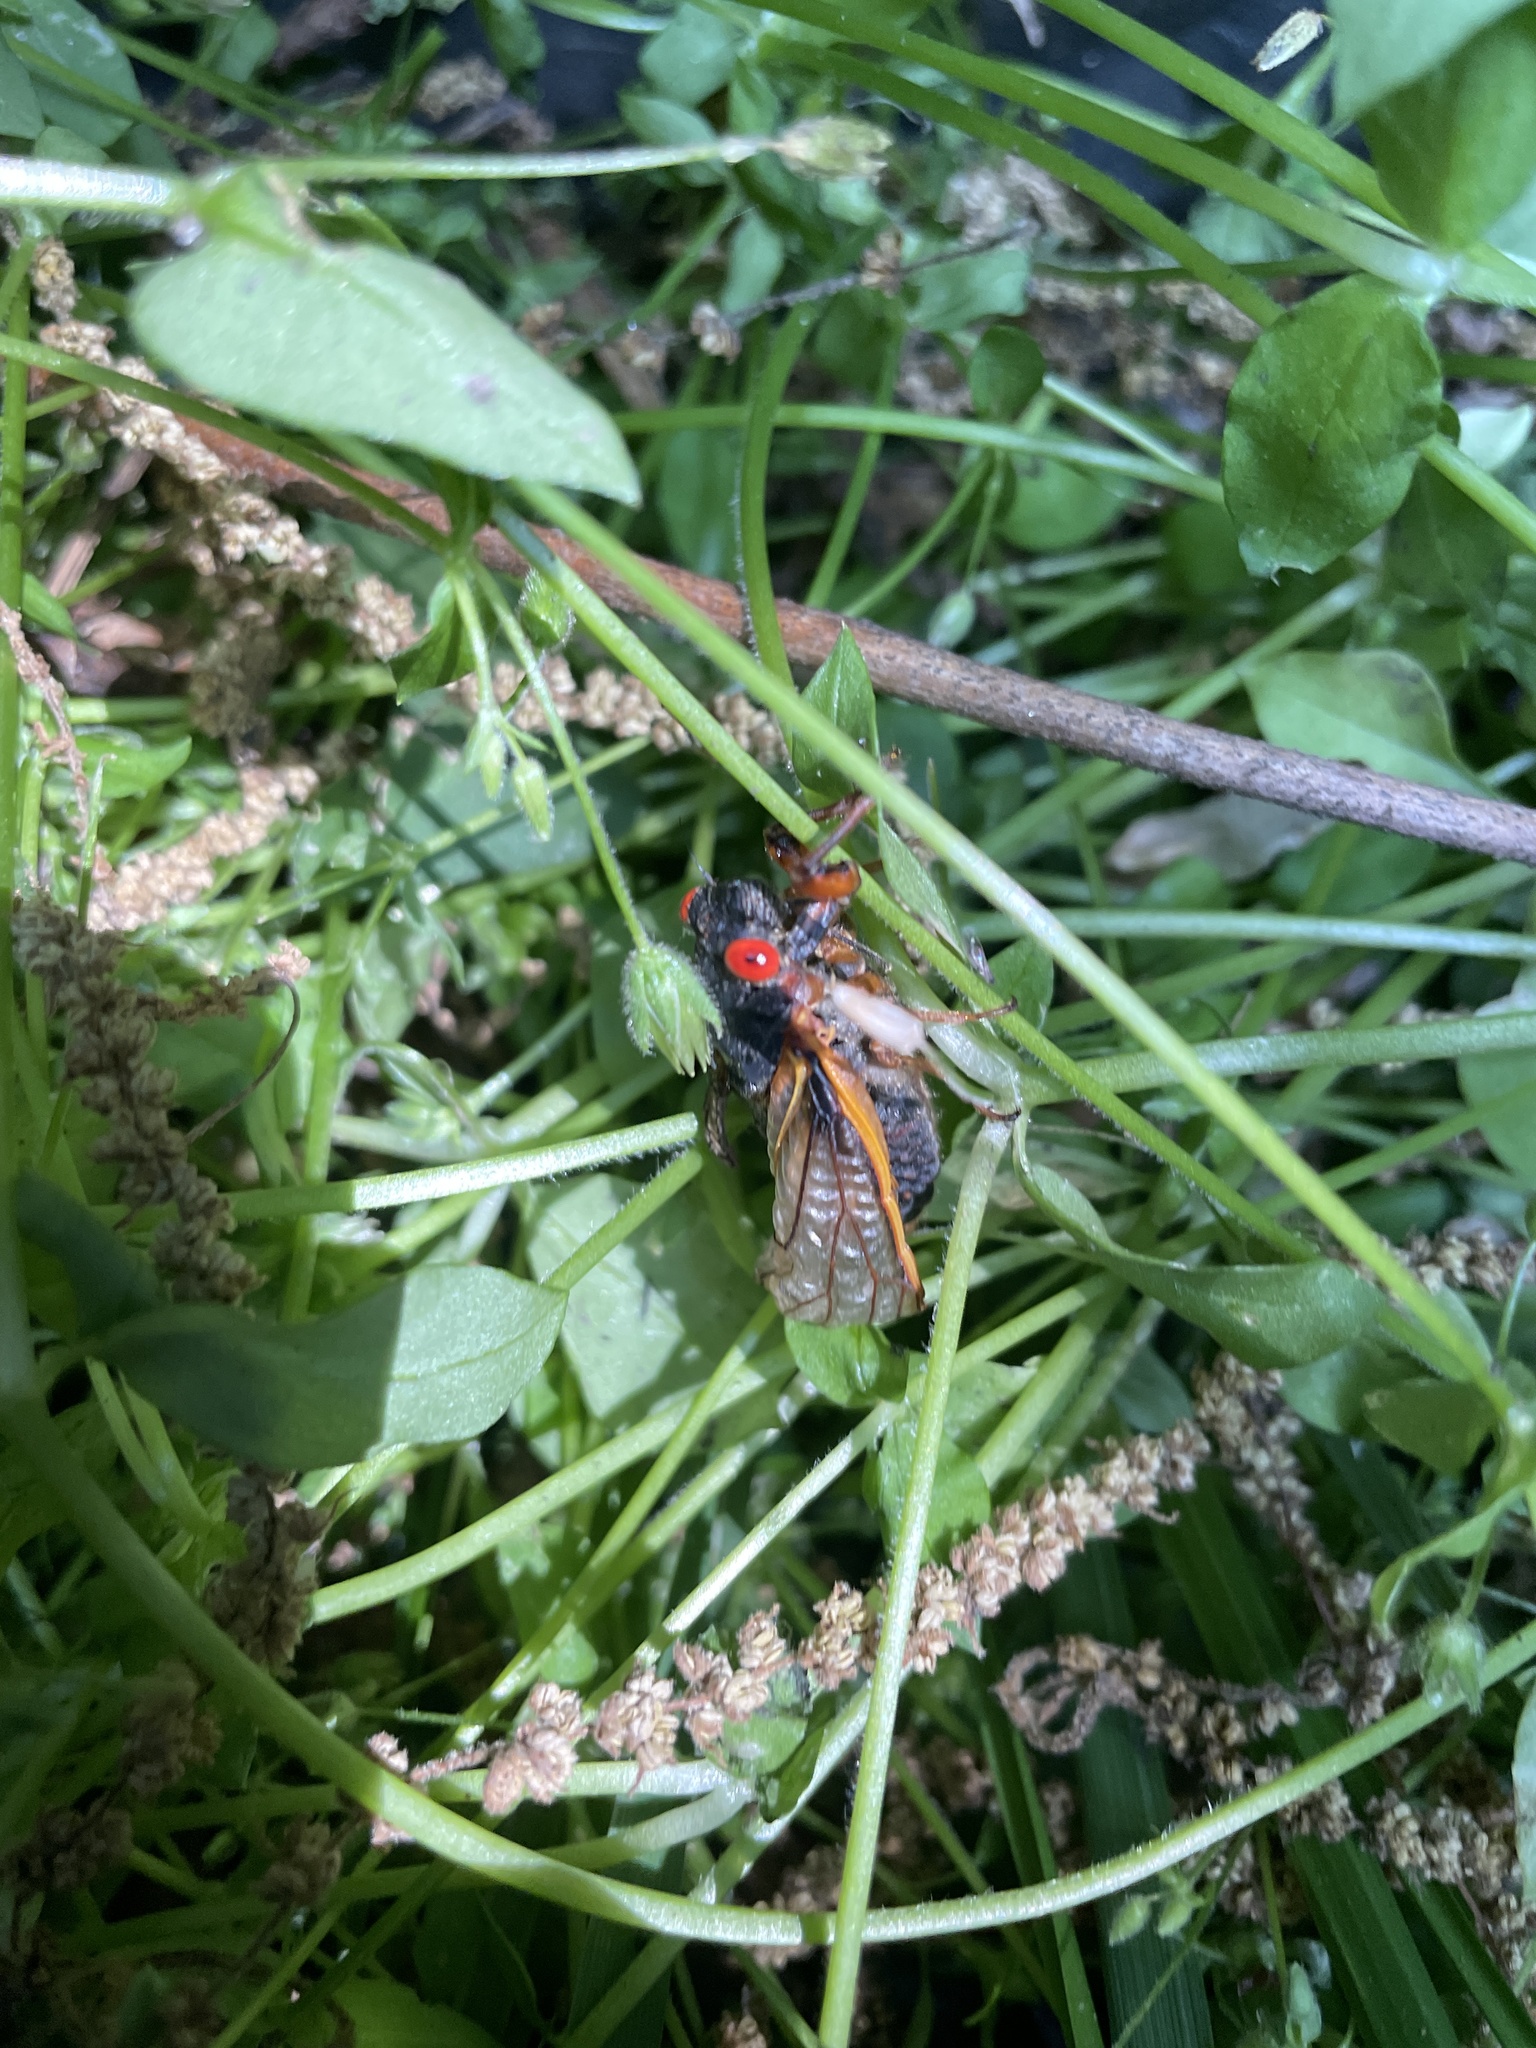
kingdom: Animalia
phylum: Arthropoda
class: Insecta
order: Hemiptera
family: Cicadidae
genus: Magicicada
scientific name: Magicicada septendecim
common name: Periodical cicada
